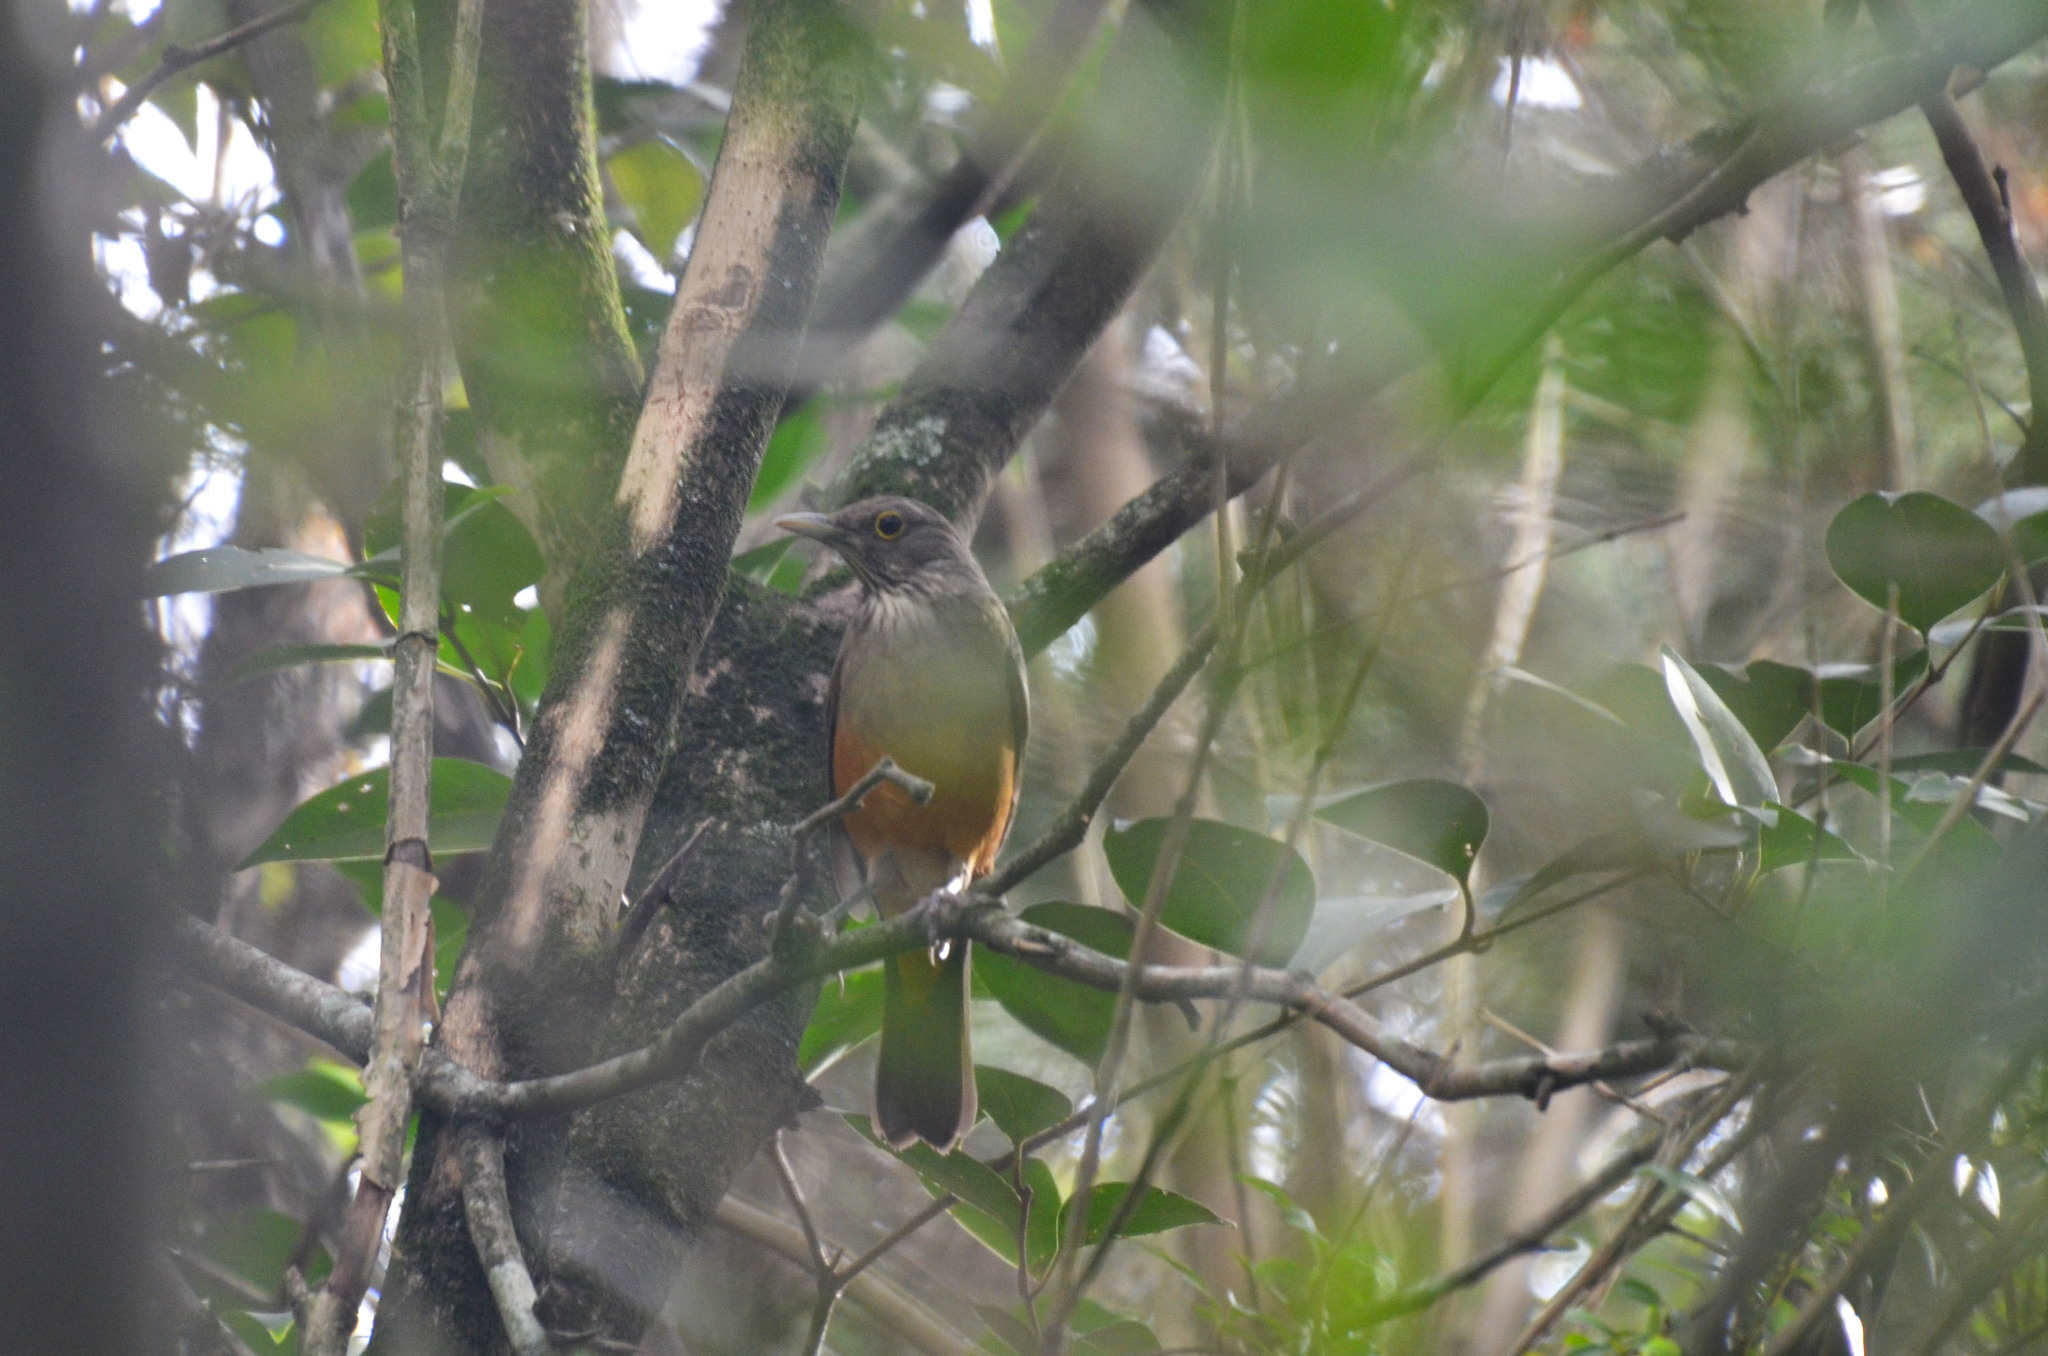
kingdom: Animalia
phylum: Chordata
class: Aves
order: Passeriformes
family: Turdidae
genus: Turdus
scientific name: Turdus rufiventris
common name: Rufous-bellied thrush
